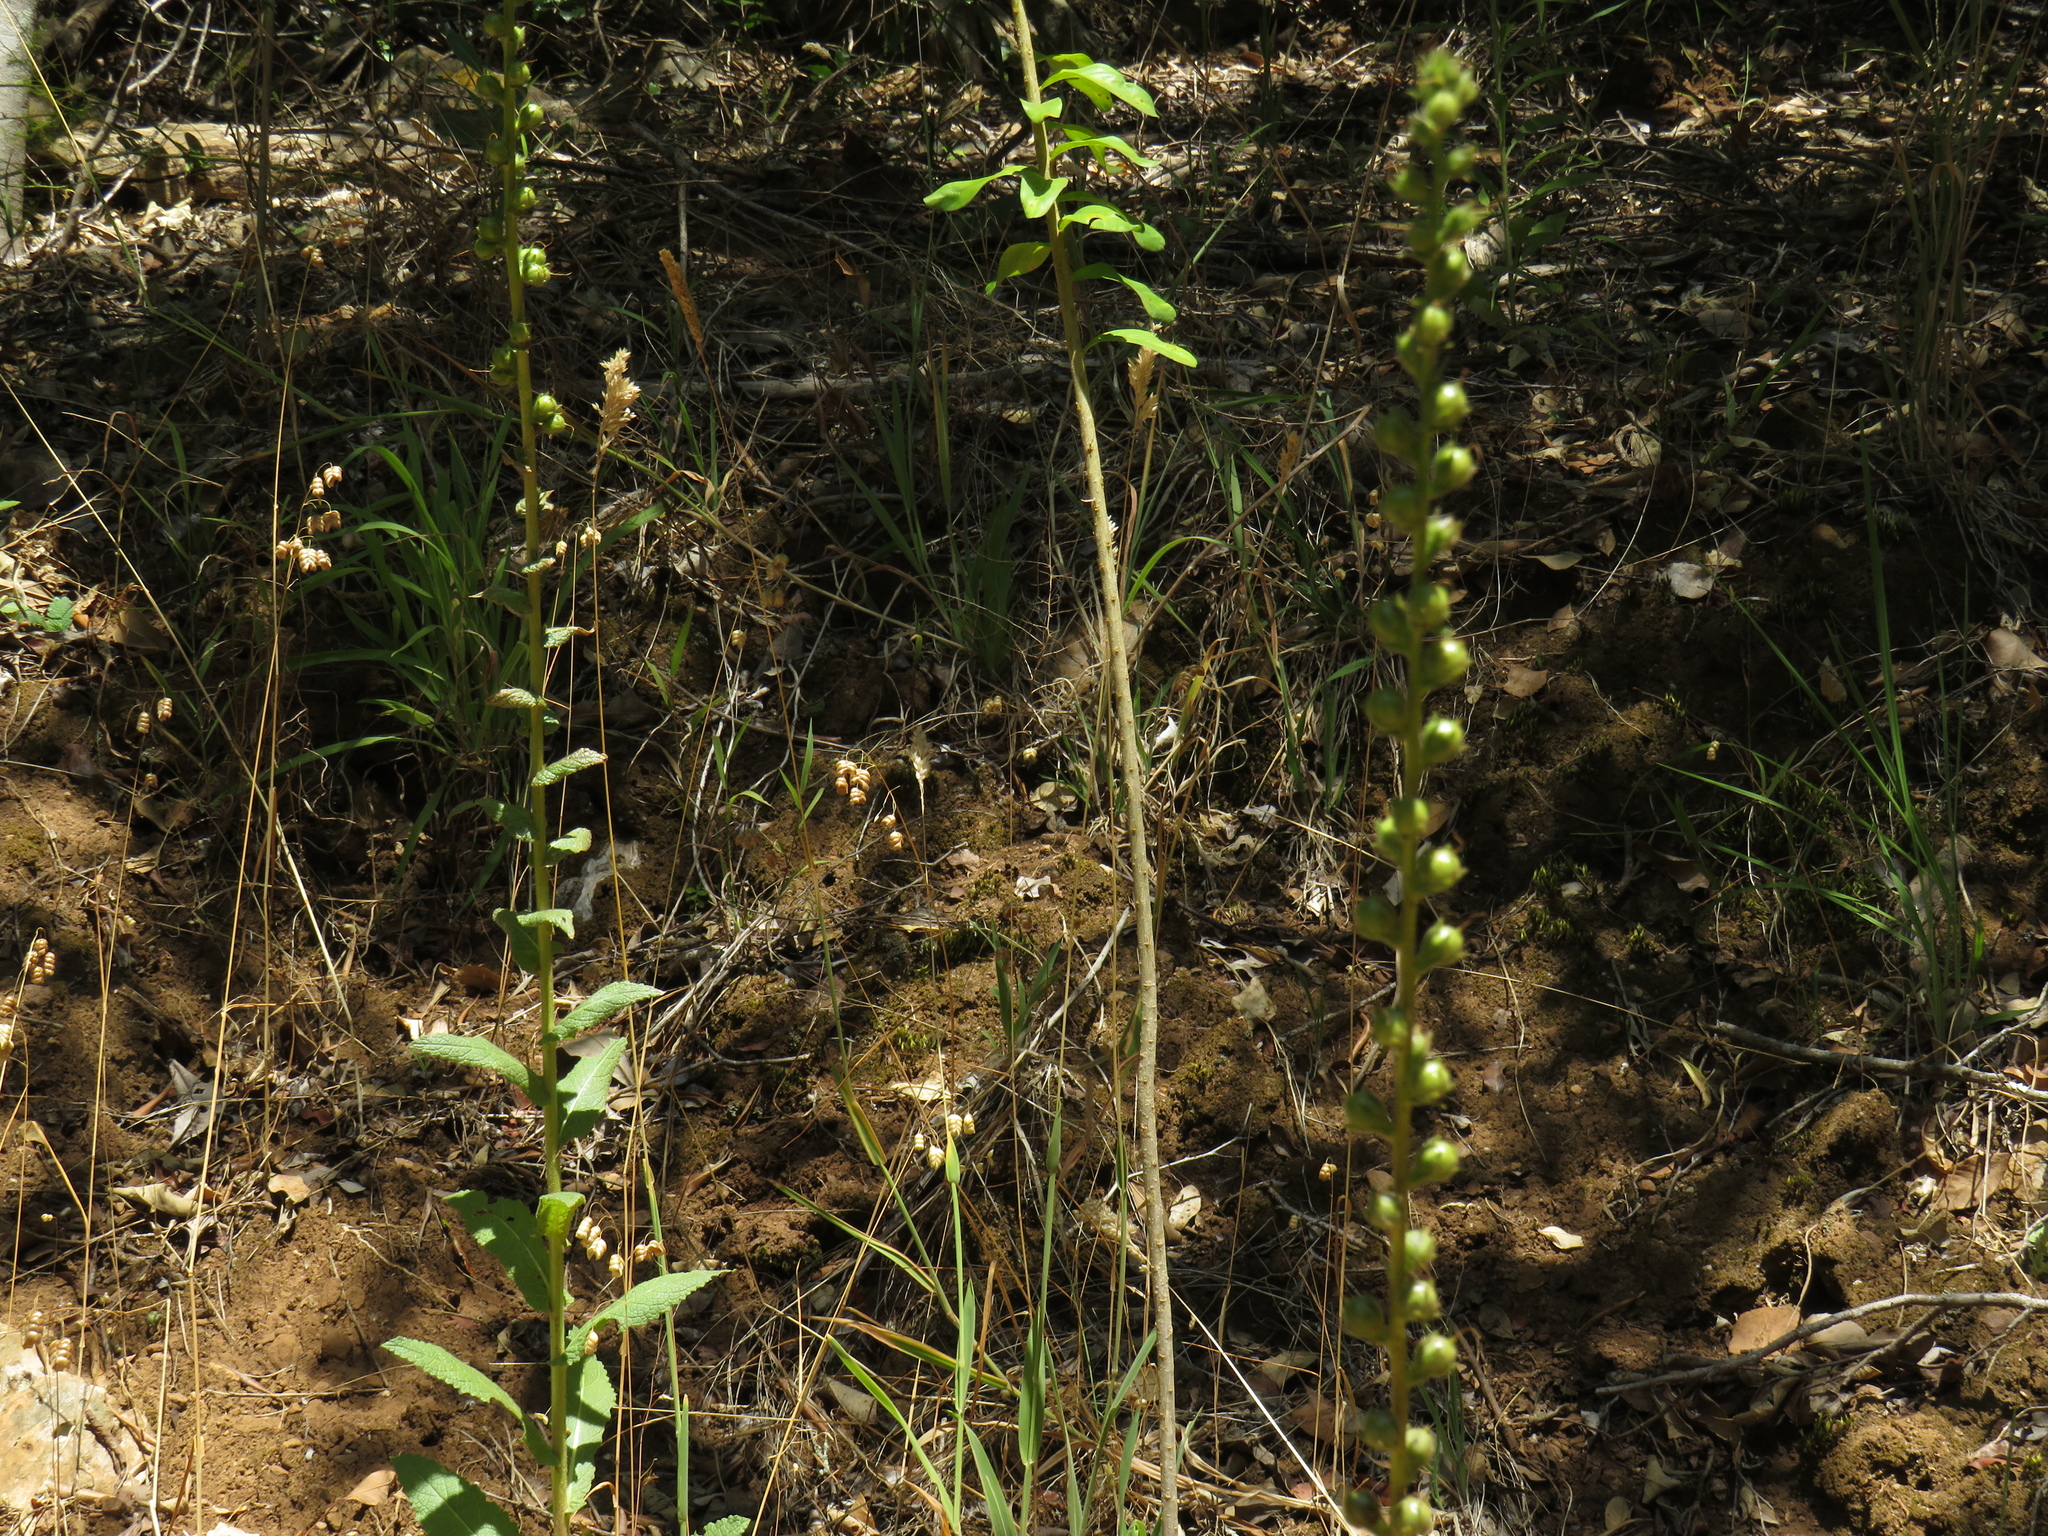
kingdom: Plantae
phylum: Tracheophyta
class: Magnoliopsida
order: Lamiales
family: Scrophulariaceae
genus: Verbascum
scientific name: Verbascum virgatum
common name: Twiggy mullein
